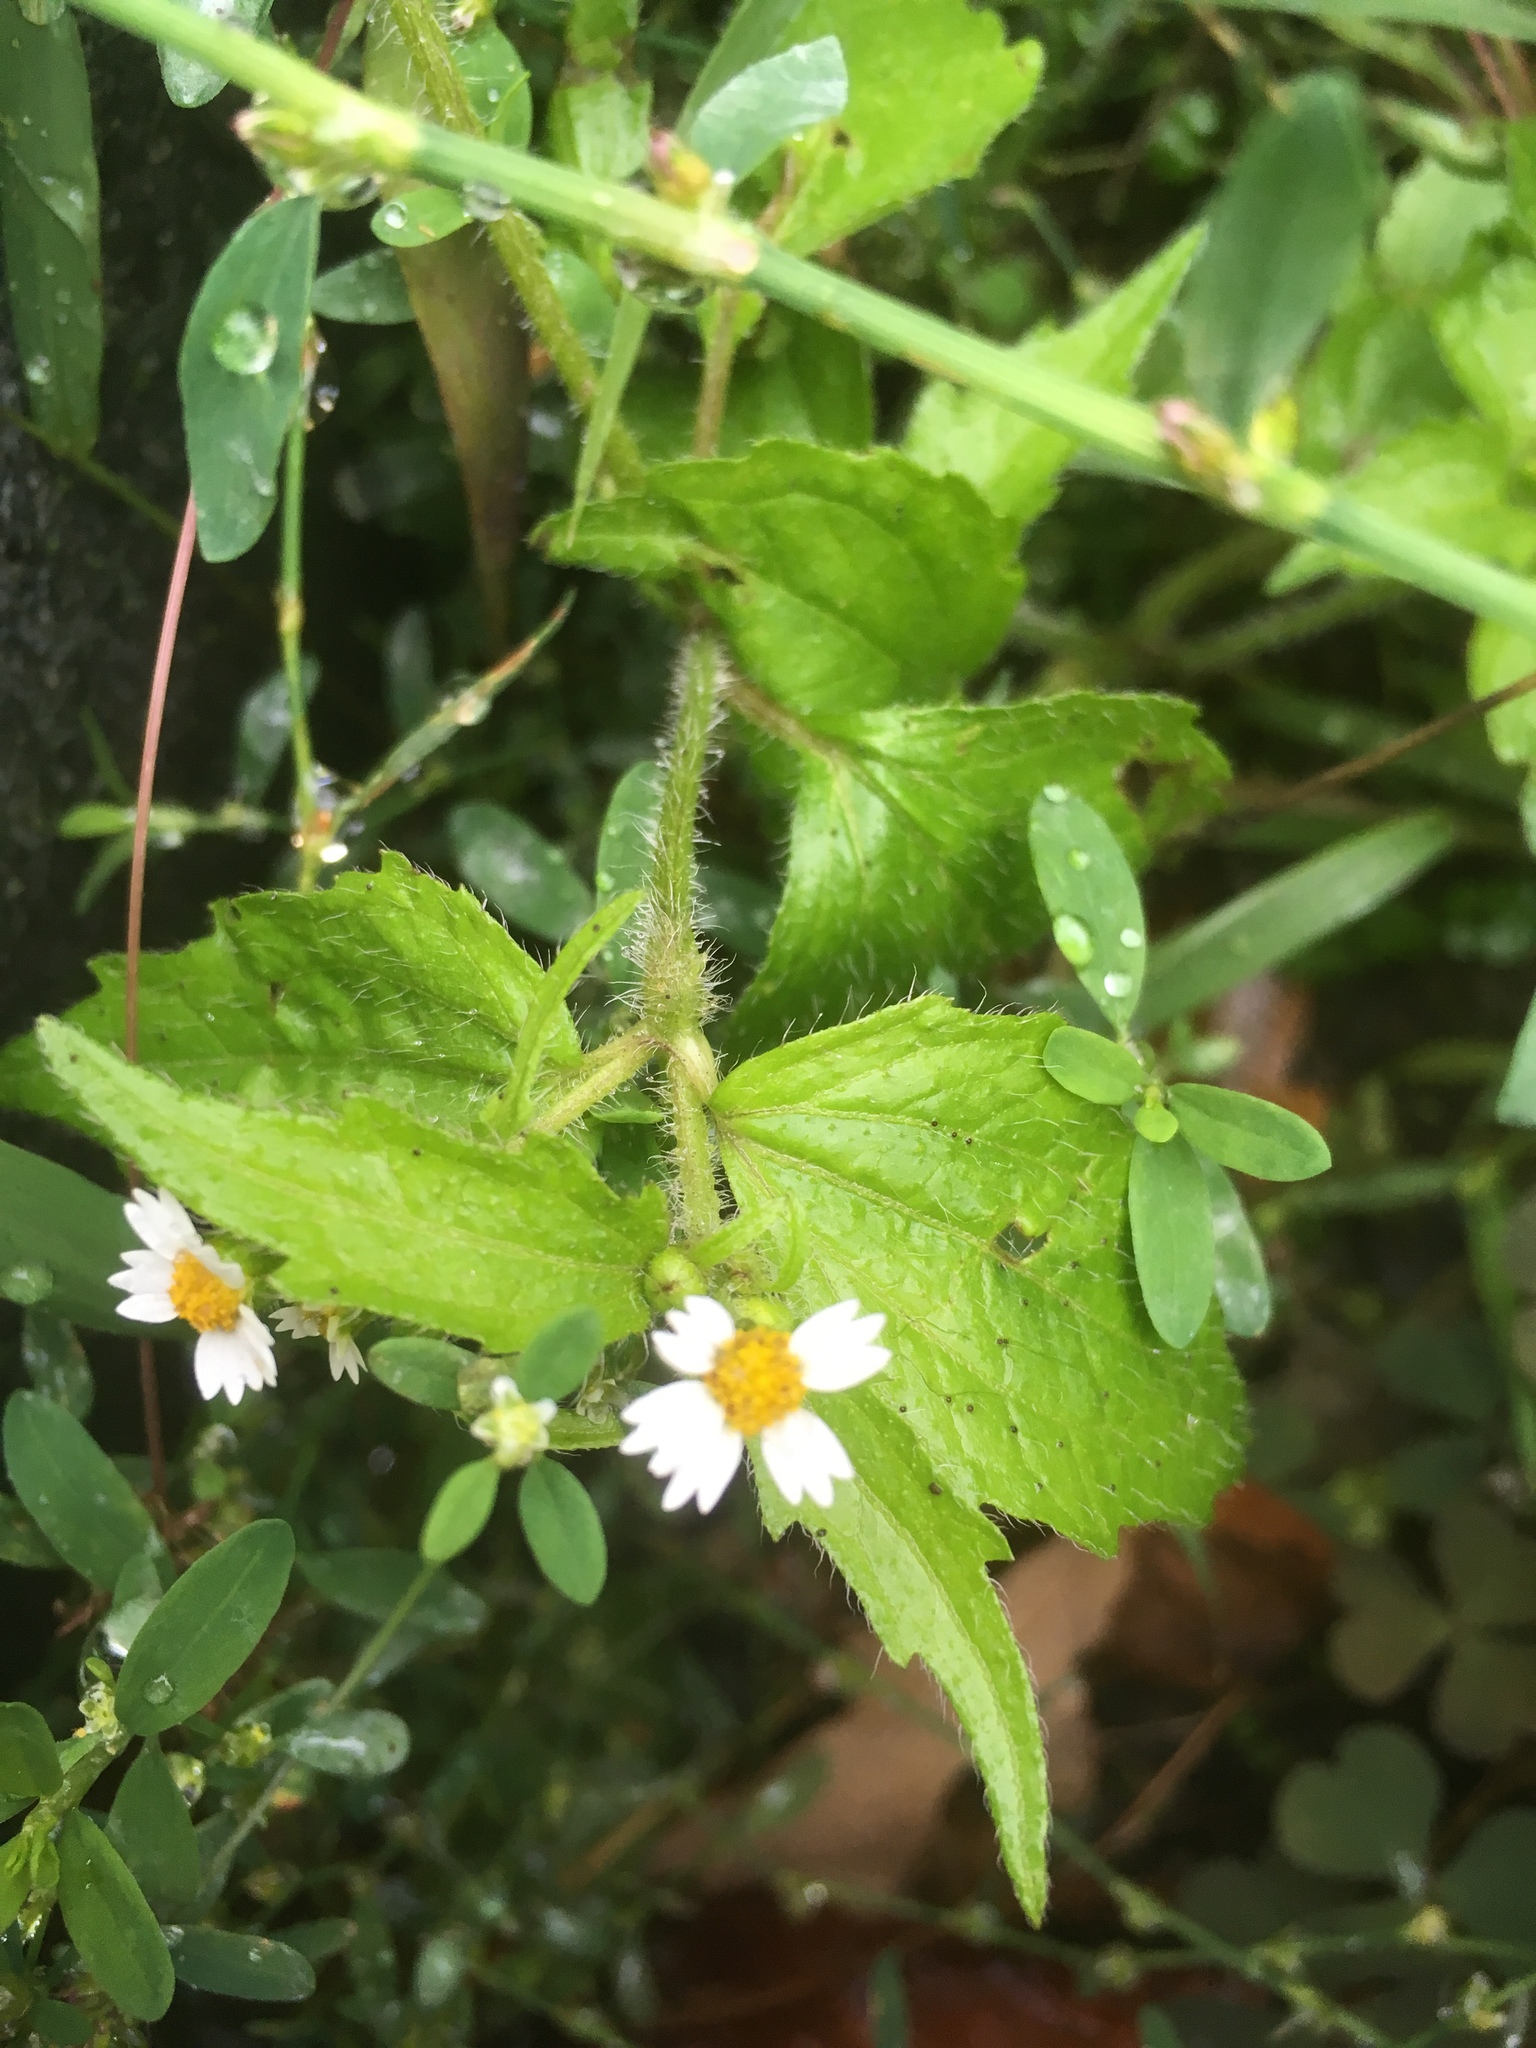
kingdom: Plantae
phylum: Tracheophyta
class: Magnoliopsida
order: Asterales
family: Asteraceae
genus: Galinsoga
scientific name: Galinsoga quadriradiata
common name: Shaggy soldier
